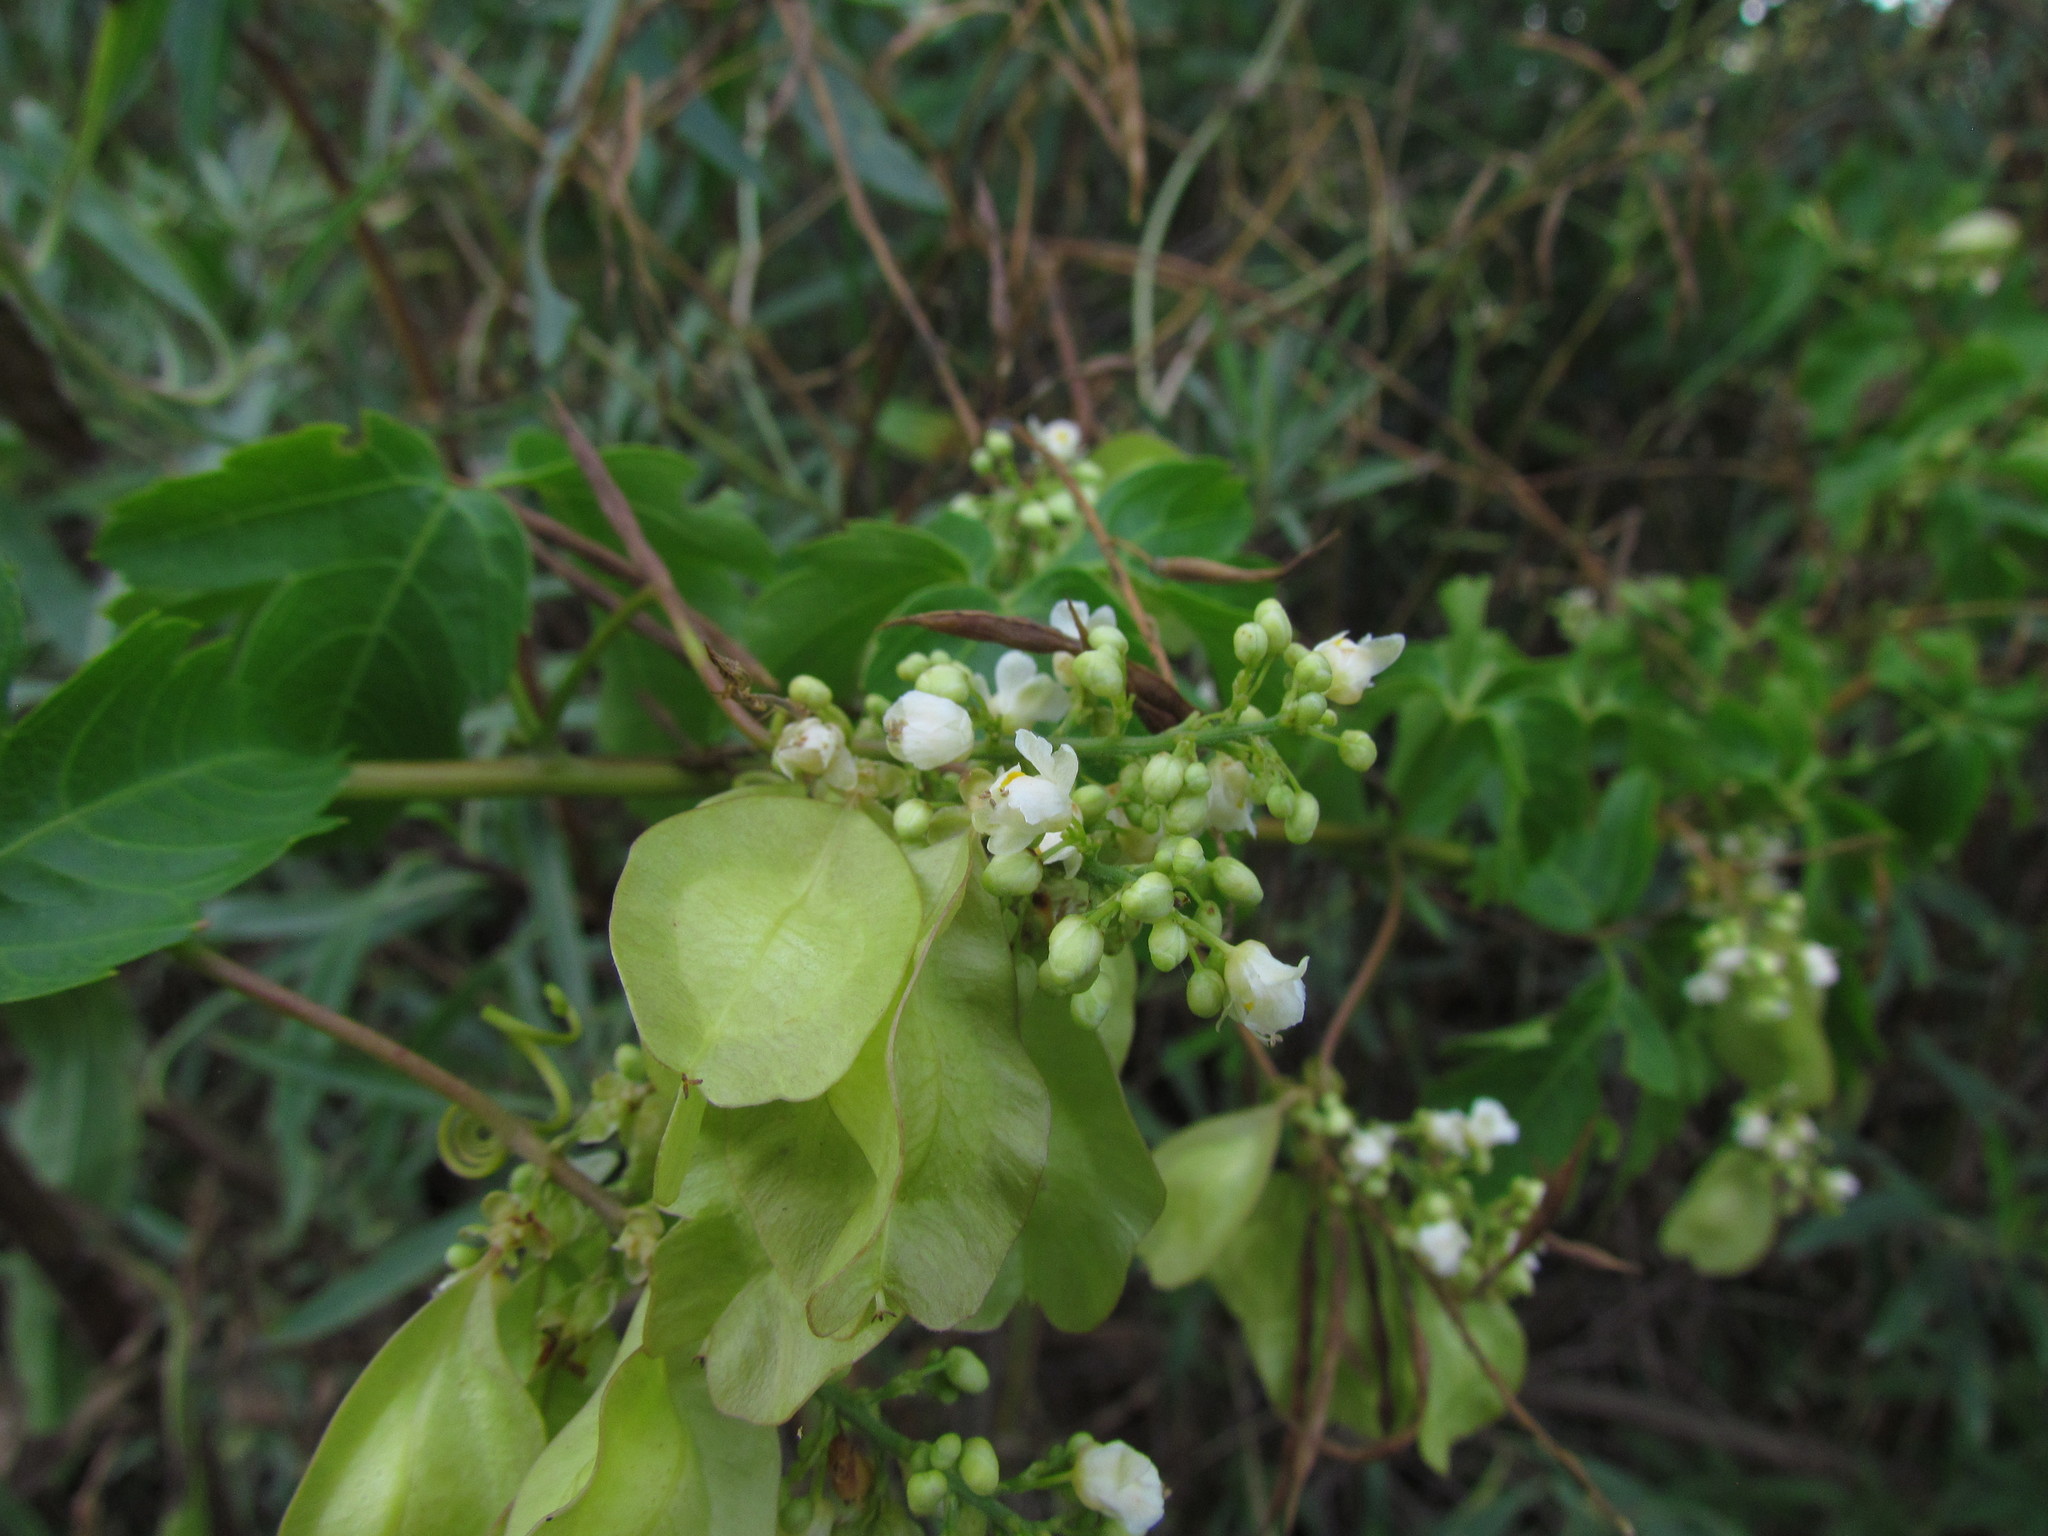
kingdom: Plantae
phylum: Tracheophyta
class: Magnoliopsida
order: Sapindales
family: Sapindaceae
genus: Urvillea
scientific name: Urvillea uniloba
